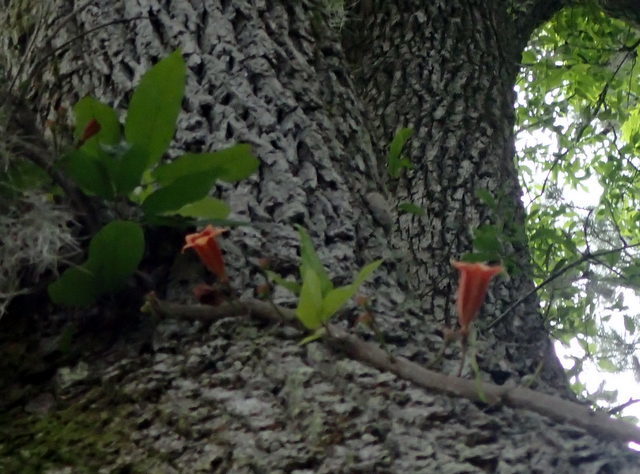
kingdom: Plantae
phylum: Tracheophyta
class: Magnoliopsida
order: Lamiales
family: Bignoniaceae
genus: Bignonia
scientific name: Bignonia capreolata
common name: Crossvine
